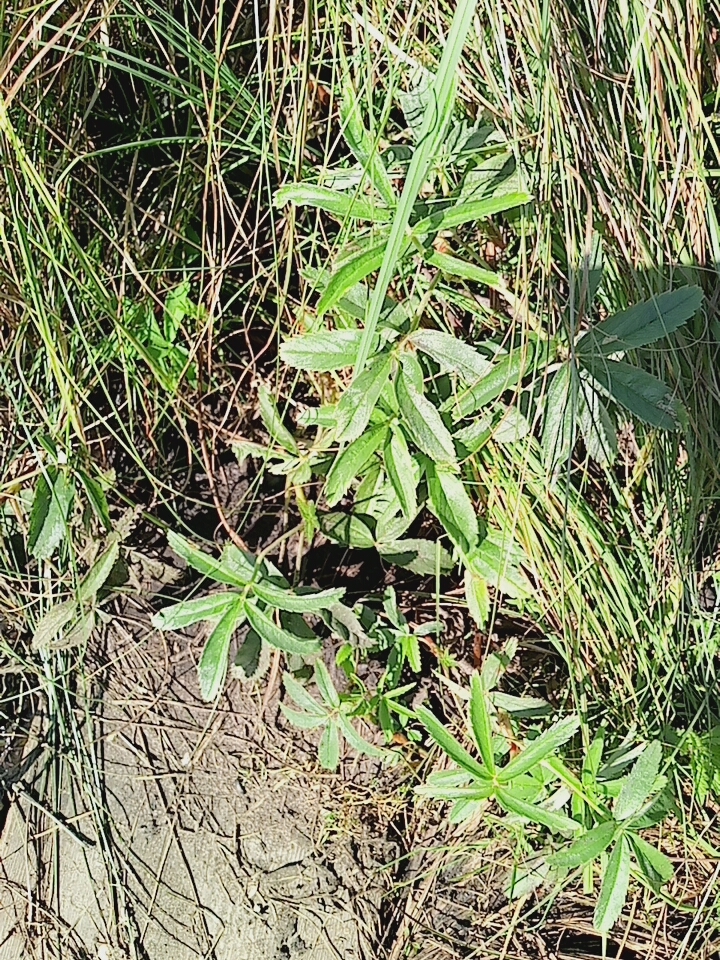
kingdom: Plantae
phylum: Tracheophyta
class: Magnoliopsida
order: Rosales
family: Rosaceae
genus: Comarum
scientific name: Comarum palustre
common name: Marsh cinquefoil
